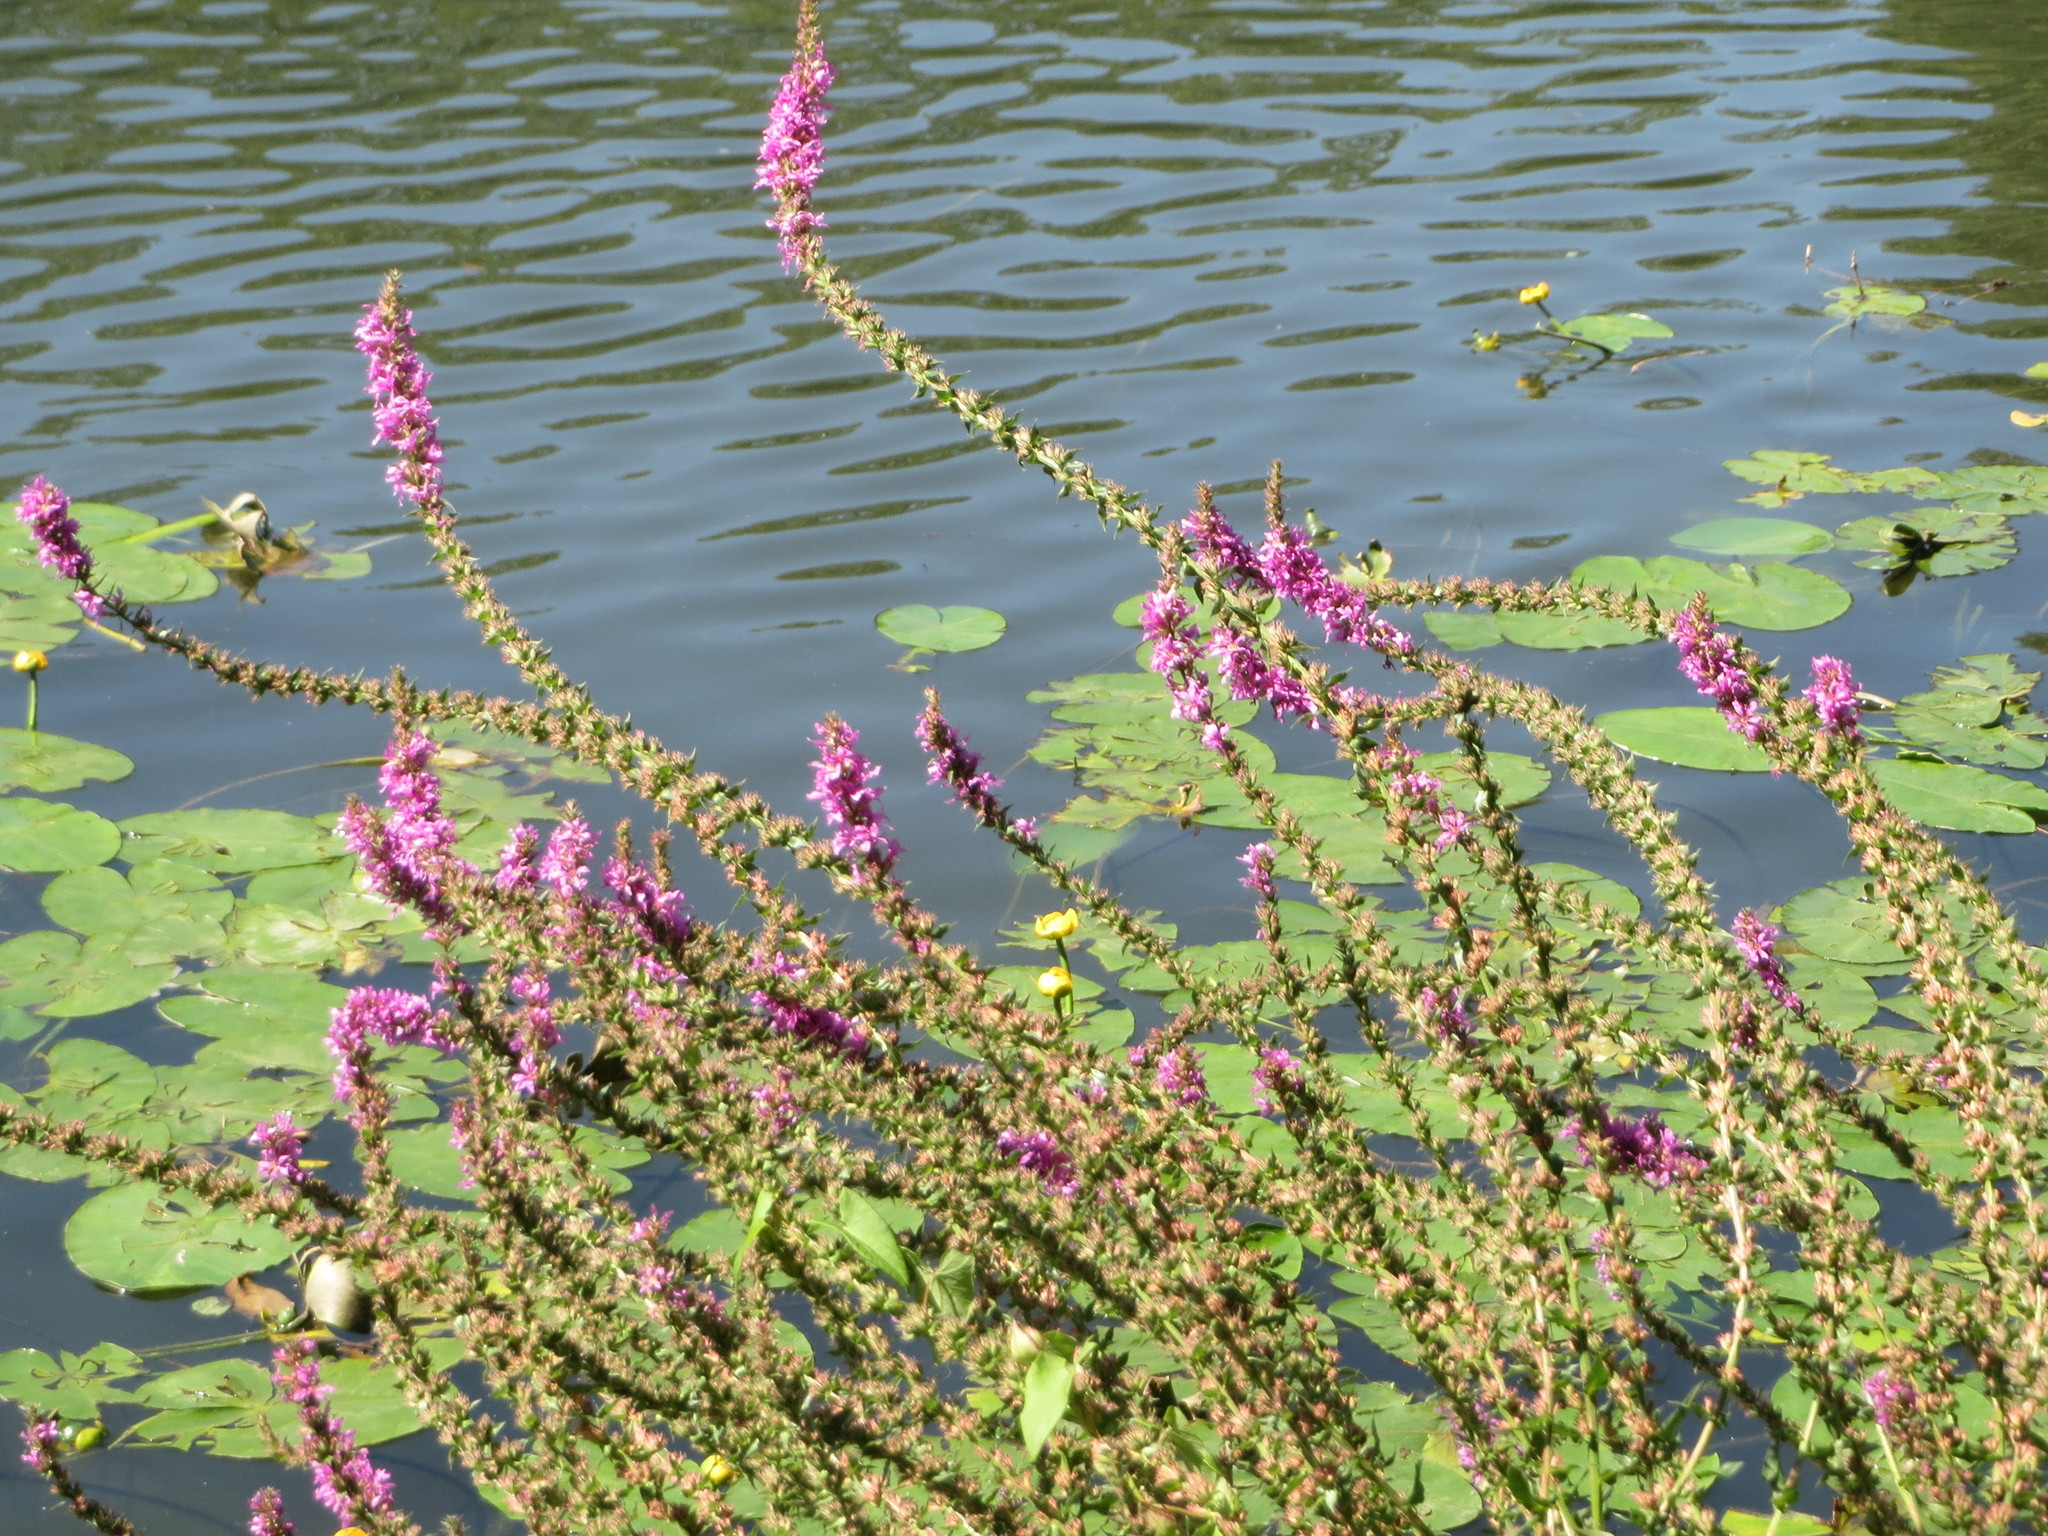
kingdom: Plantae
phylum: Tracheophyta
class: Magnoliopsida
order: Myrtales
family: Lythraceae
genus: Lythrum
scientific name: Lythrum salicaria
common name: Purple loosestrife
